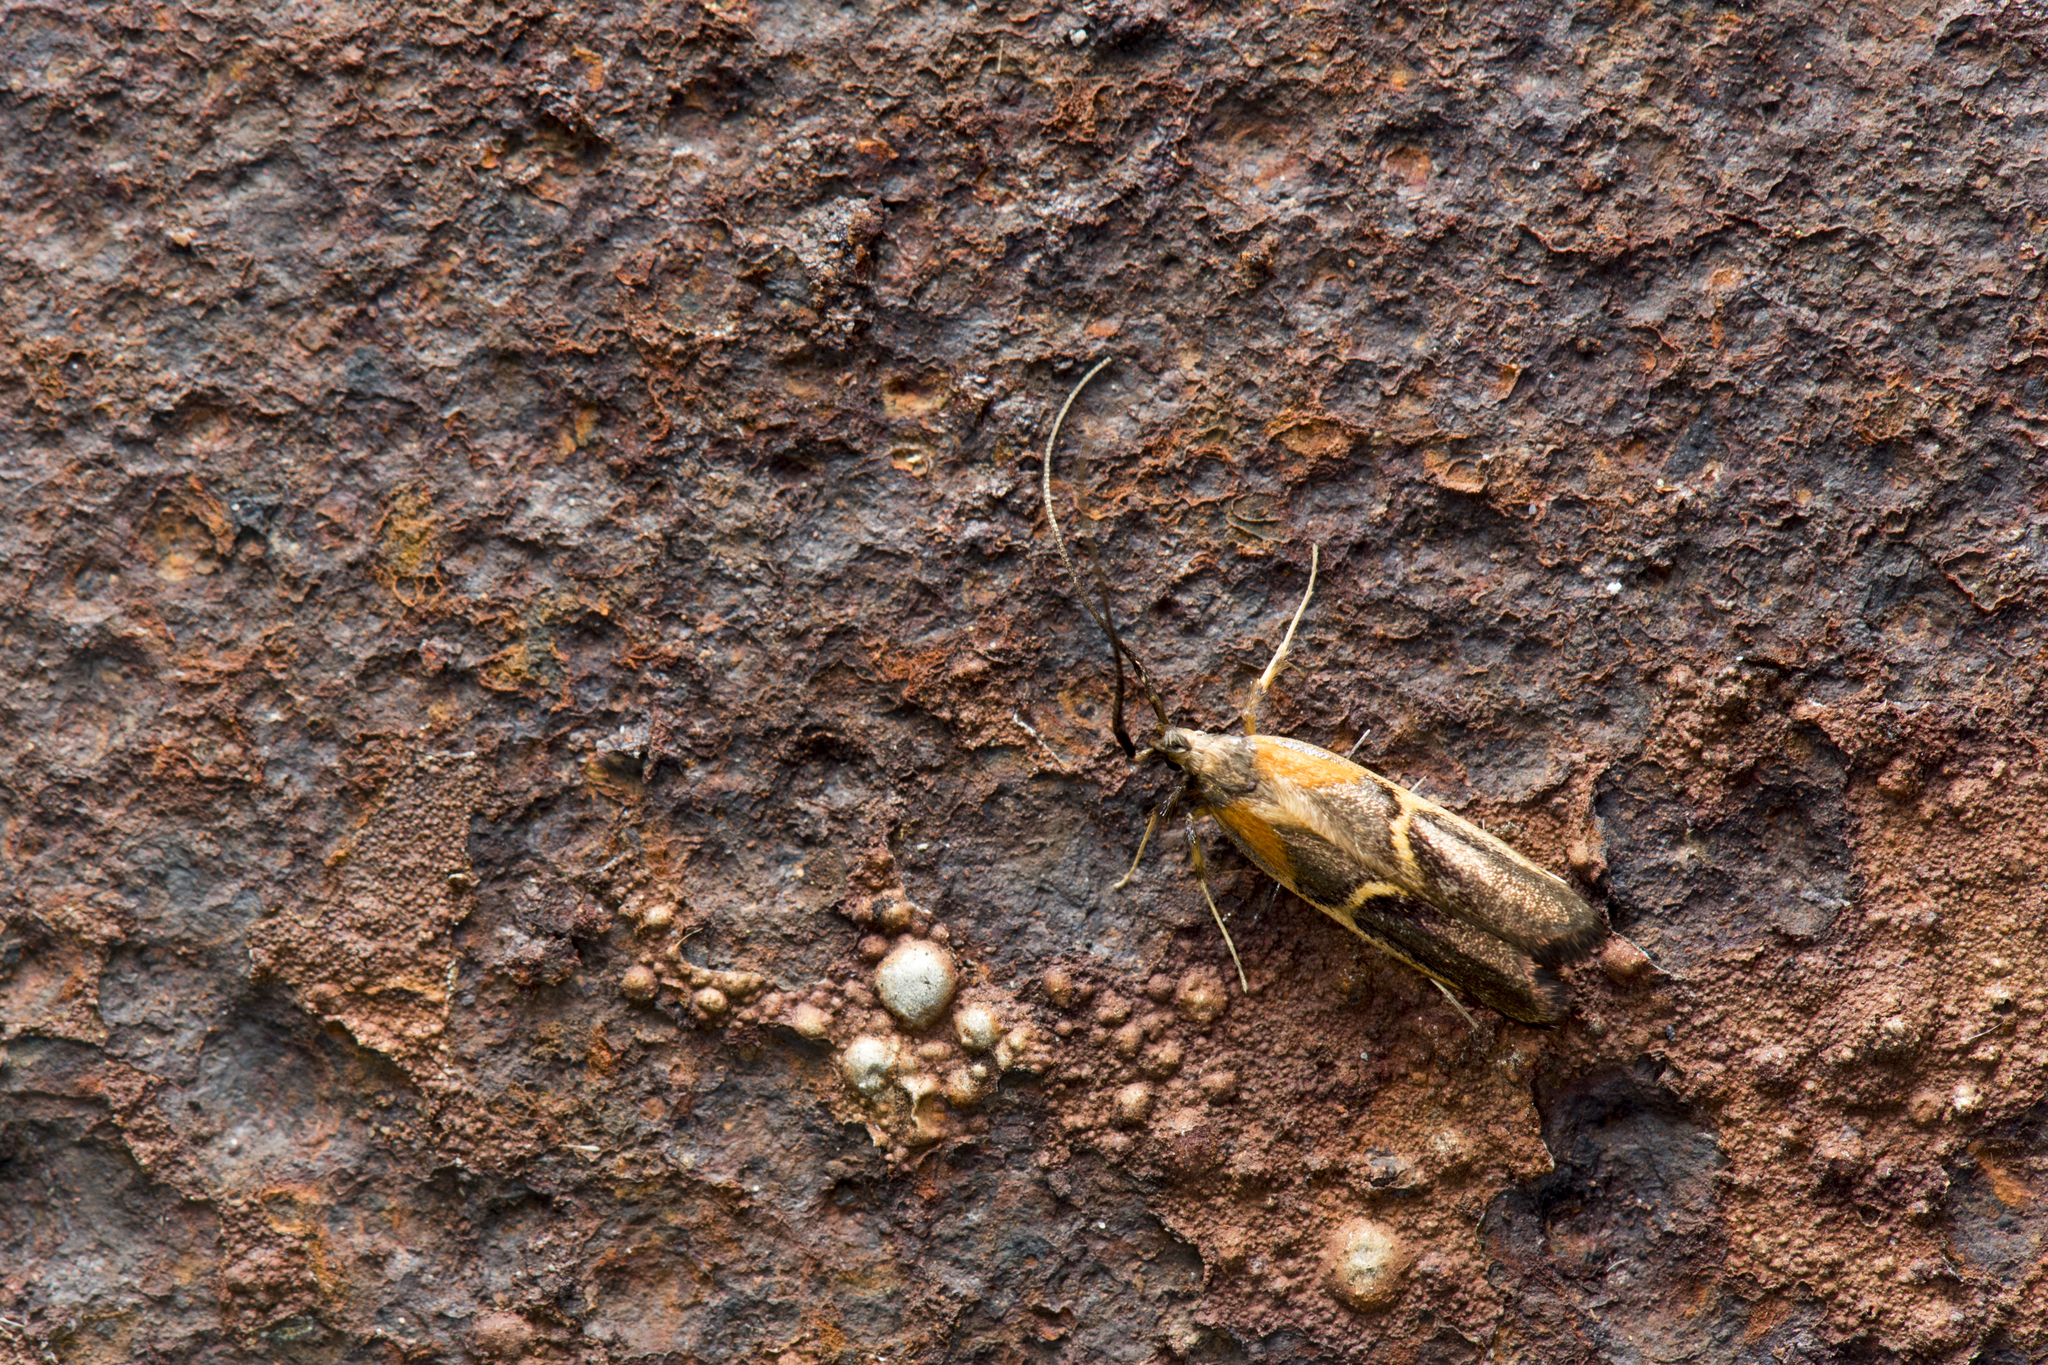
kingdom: Animalia
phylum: Arthropoda
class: Insecta
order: Lepidoptera
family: Lecithoceridae
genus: Tisis
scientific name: Tisis mesozosta
